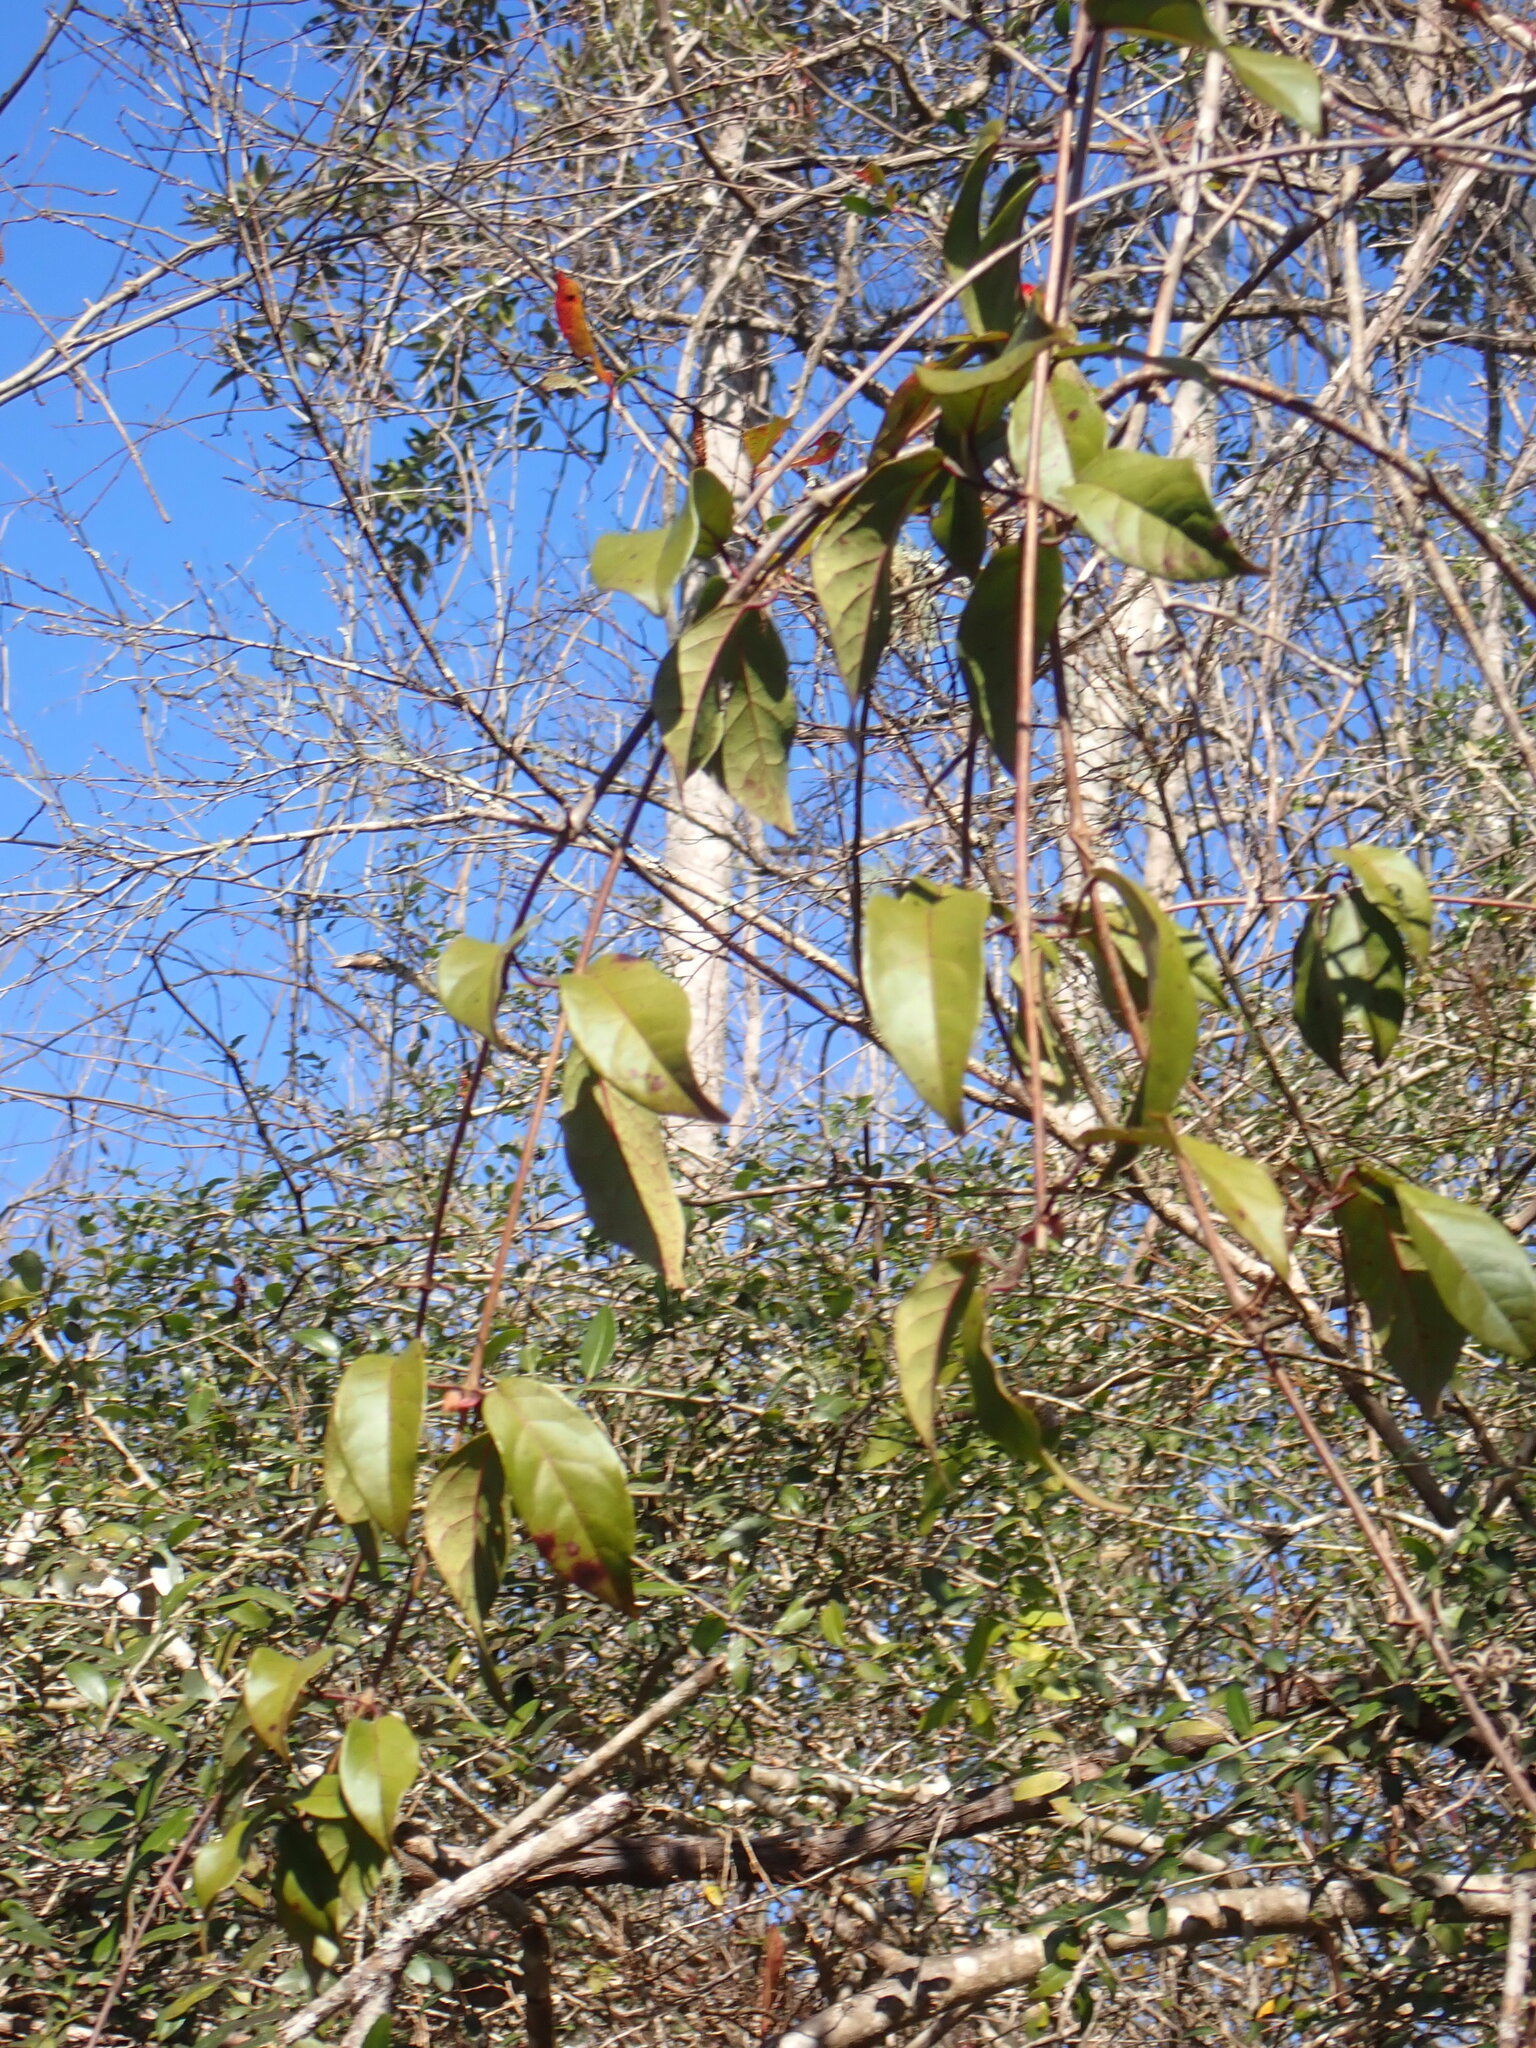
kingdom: Plantae
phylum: Tracheophyta
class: Magnoliopsida
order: Lamiales
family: Bignoniaceae
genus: Bignonia
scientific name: Bignonia capreolata
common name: Crossvine
